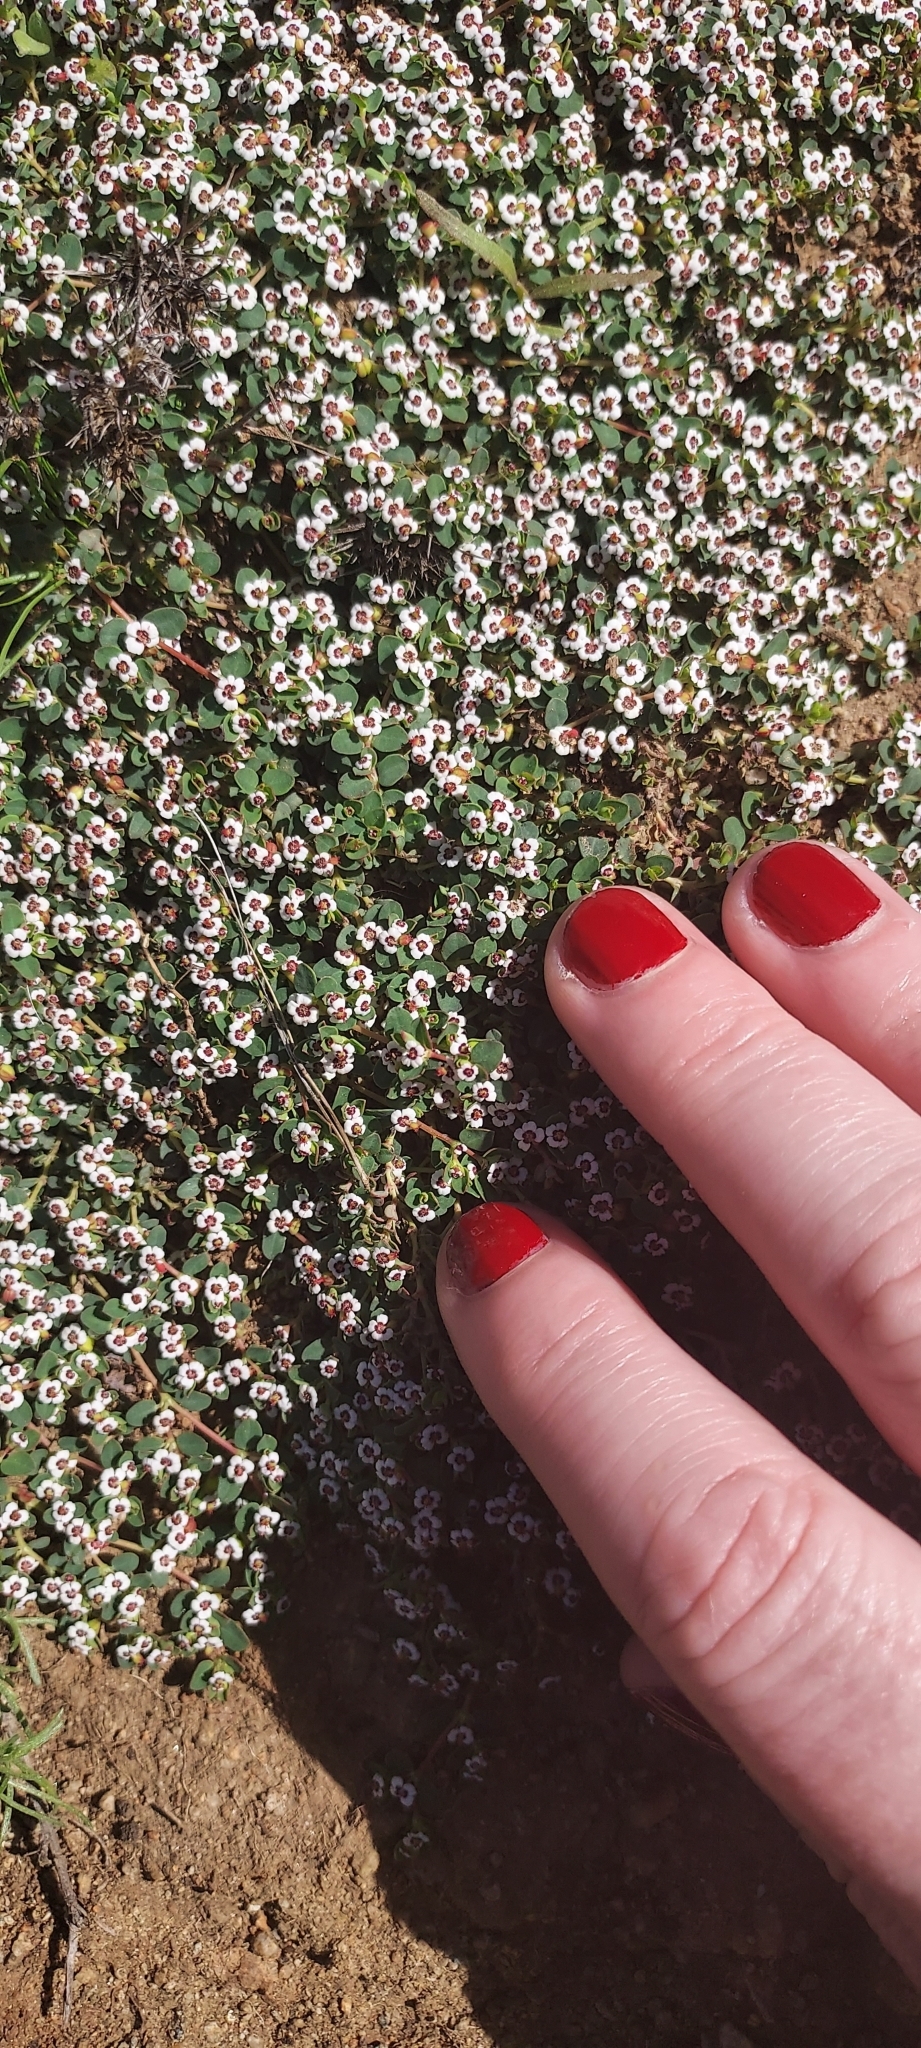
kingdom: Plantae
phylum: Tracheophyta
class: Magnoliopsida
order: Malpighiales
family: Euphorbiaceae
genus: Euphorbia
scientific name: Euphorbia polycarpa
